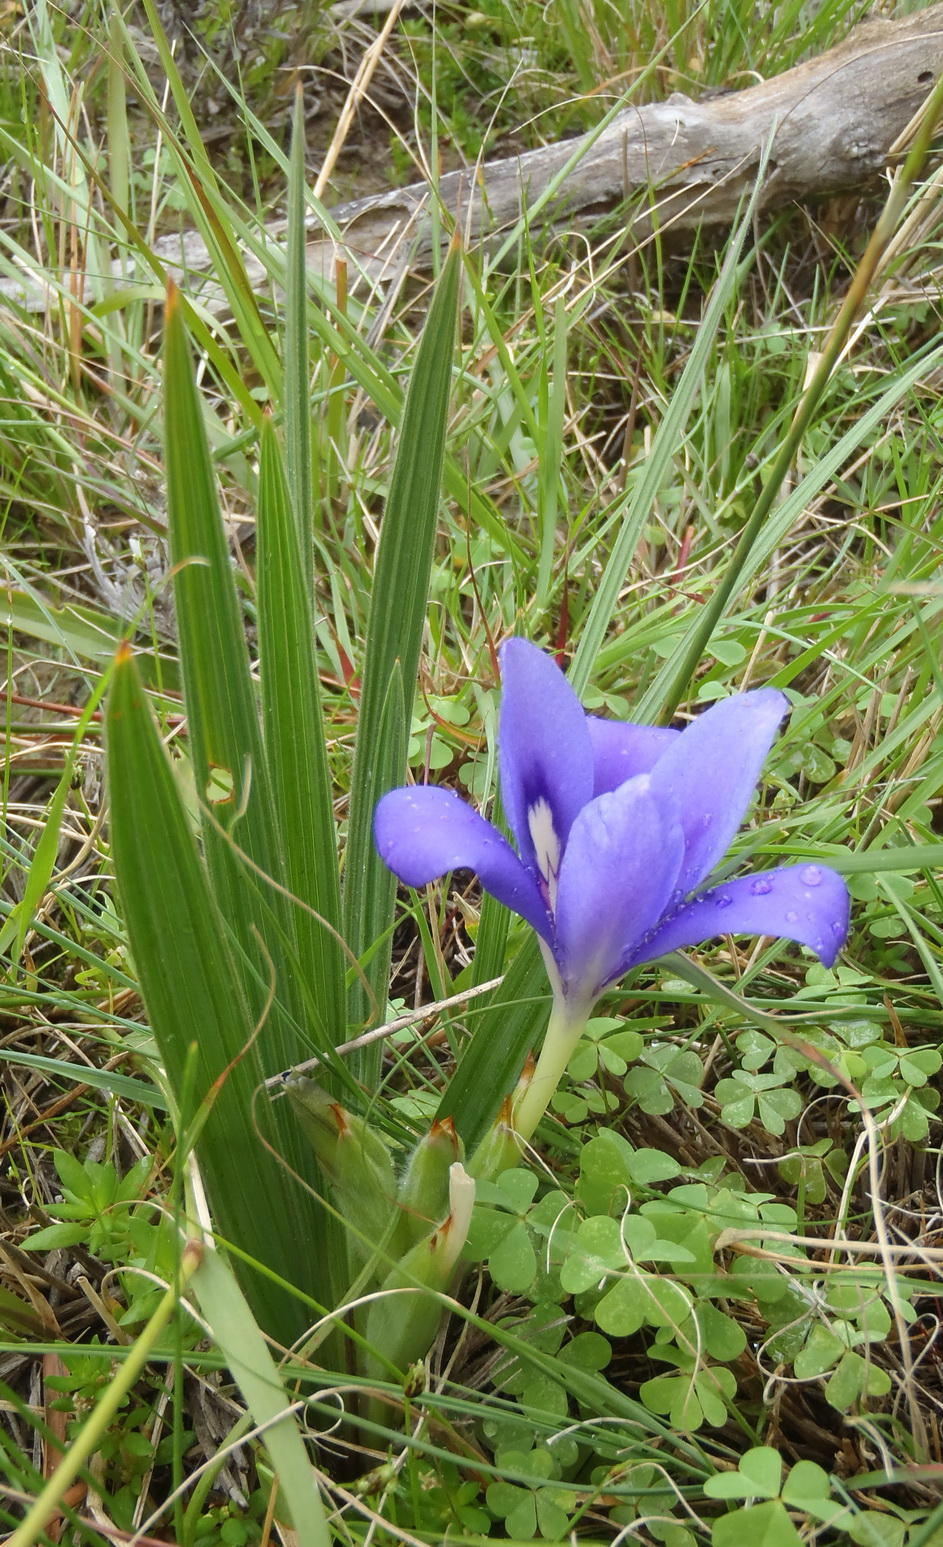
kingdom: Plantae
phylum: Tracheophyta
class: Liliopsida
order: Asparagales
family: Iridaceae
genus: Babiana
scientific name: Babiana sambucina
